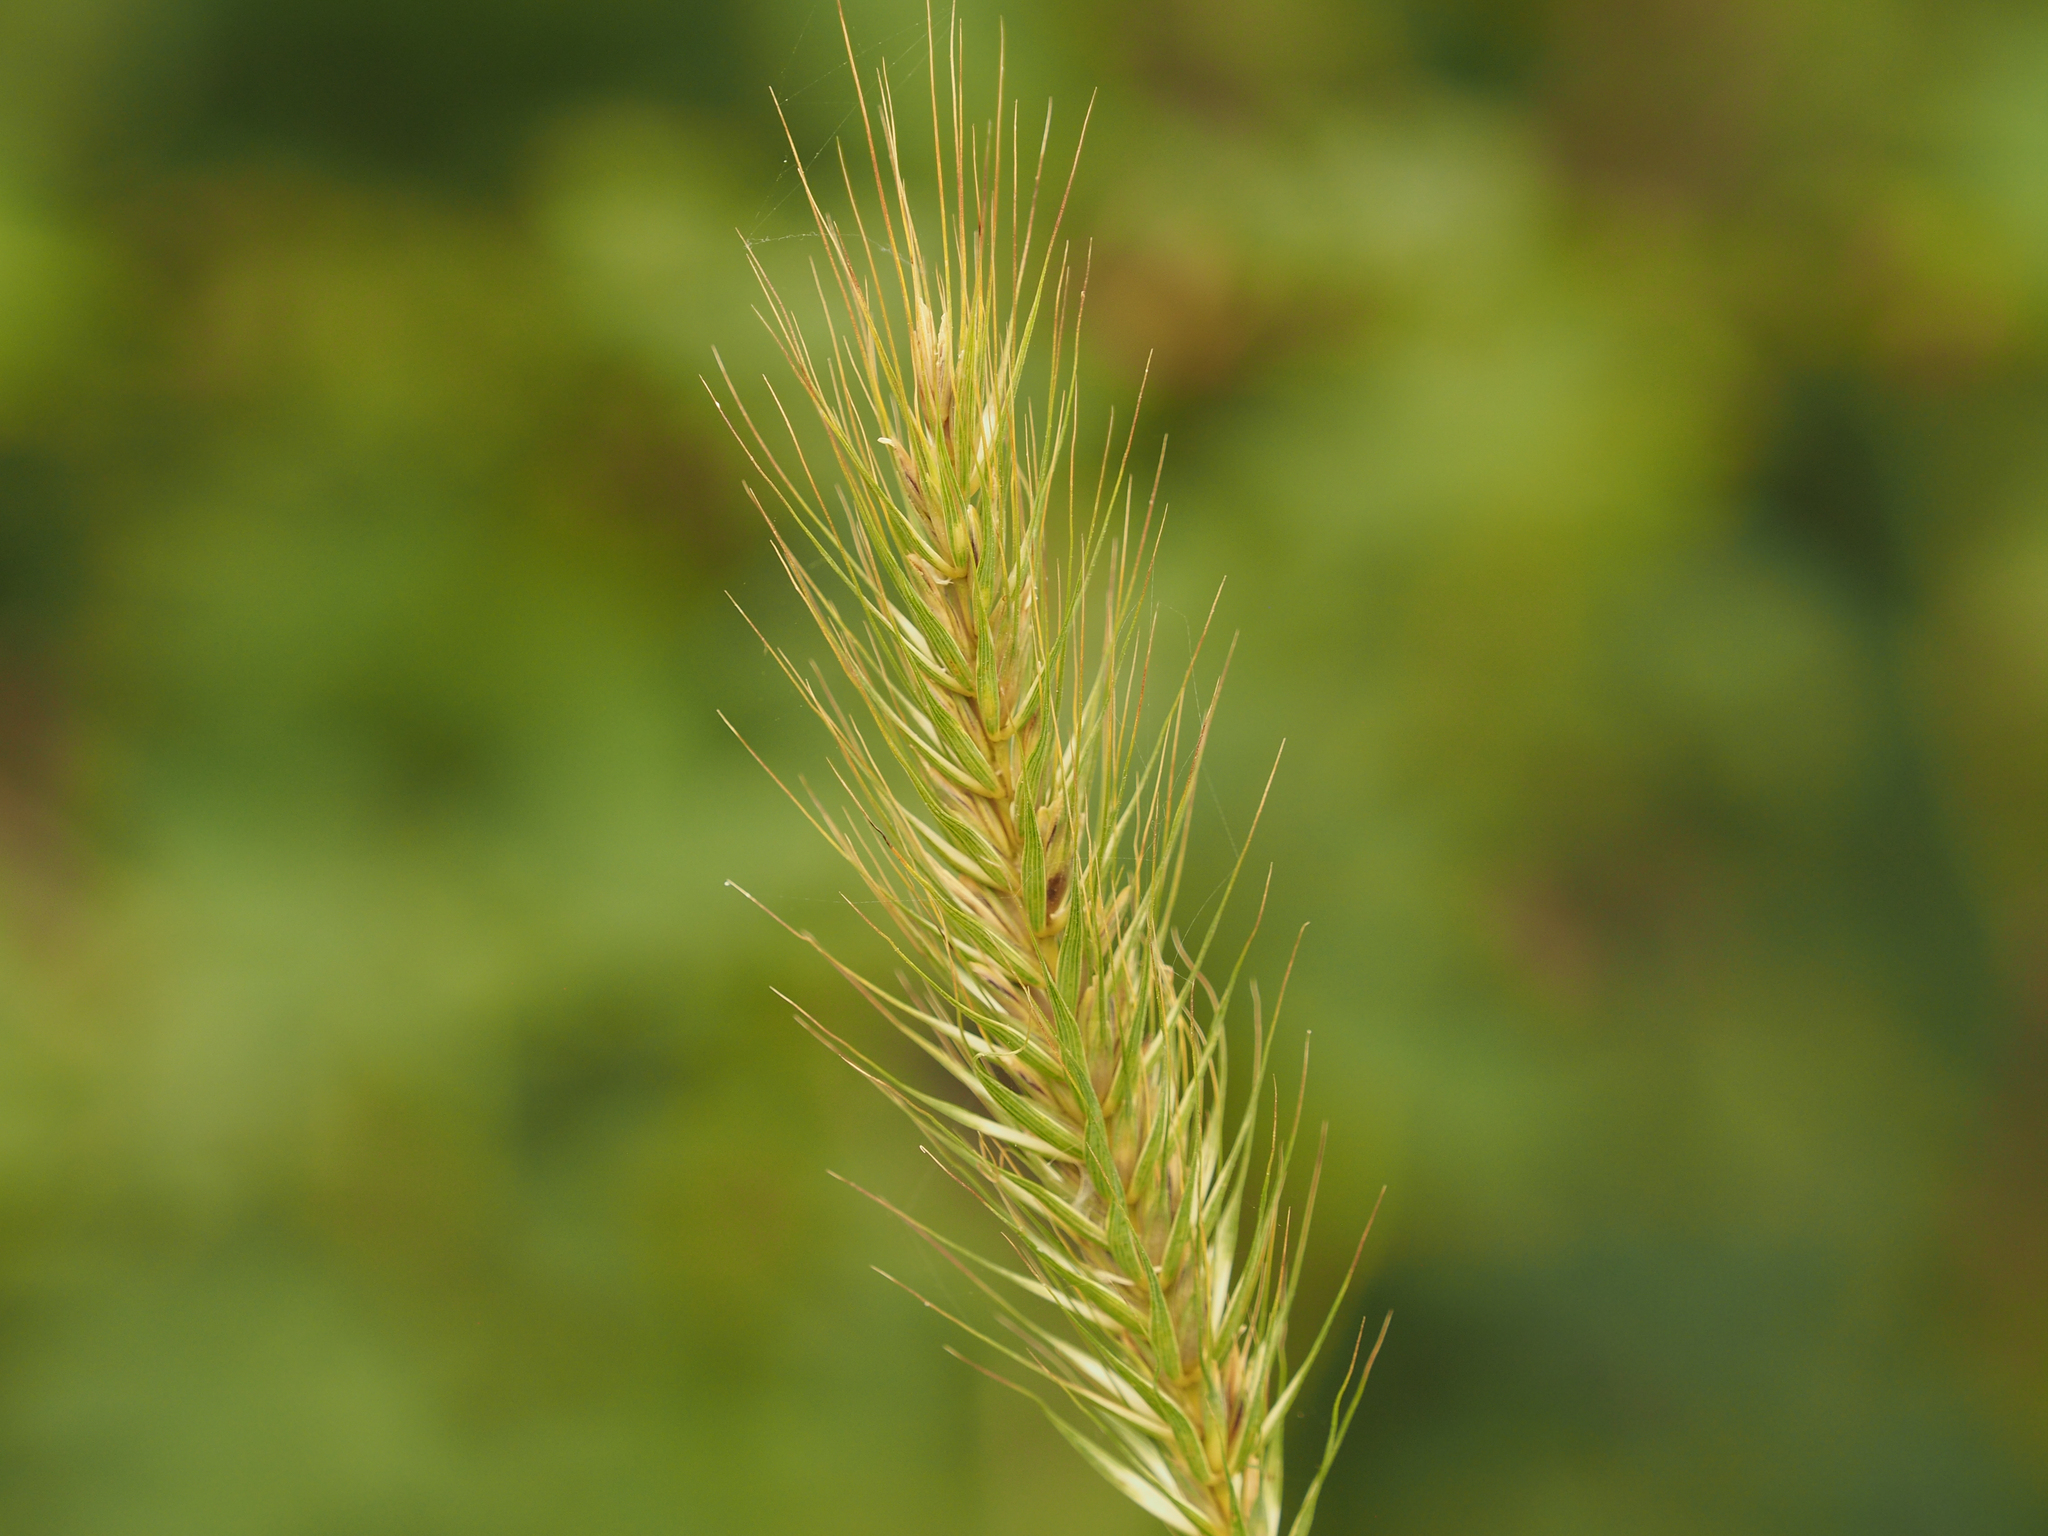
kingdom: Plantae
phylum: Tracheophyta
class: Liliopsida
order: Poales
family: Poaceae
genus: Elymus
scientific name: Elymus virginicus
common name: Common eastern wildrye
